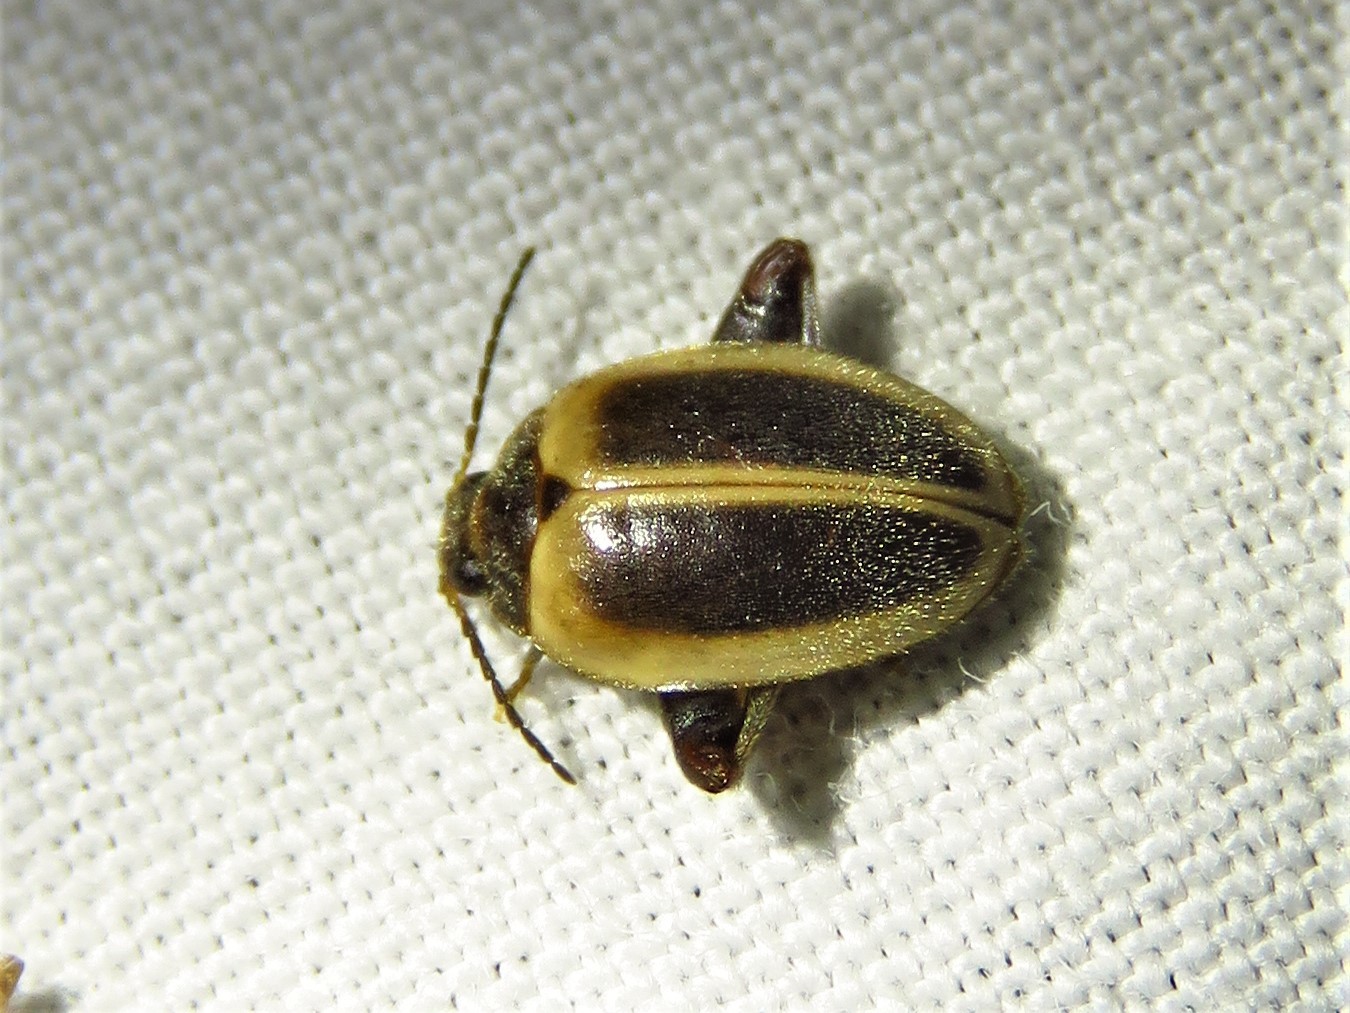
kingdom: Animalia
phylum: Arthropoda
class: Insecta
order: Coleoptera
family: Scirtidae
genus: Ora
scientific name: Ora discoidea
